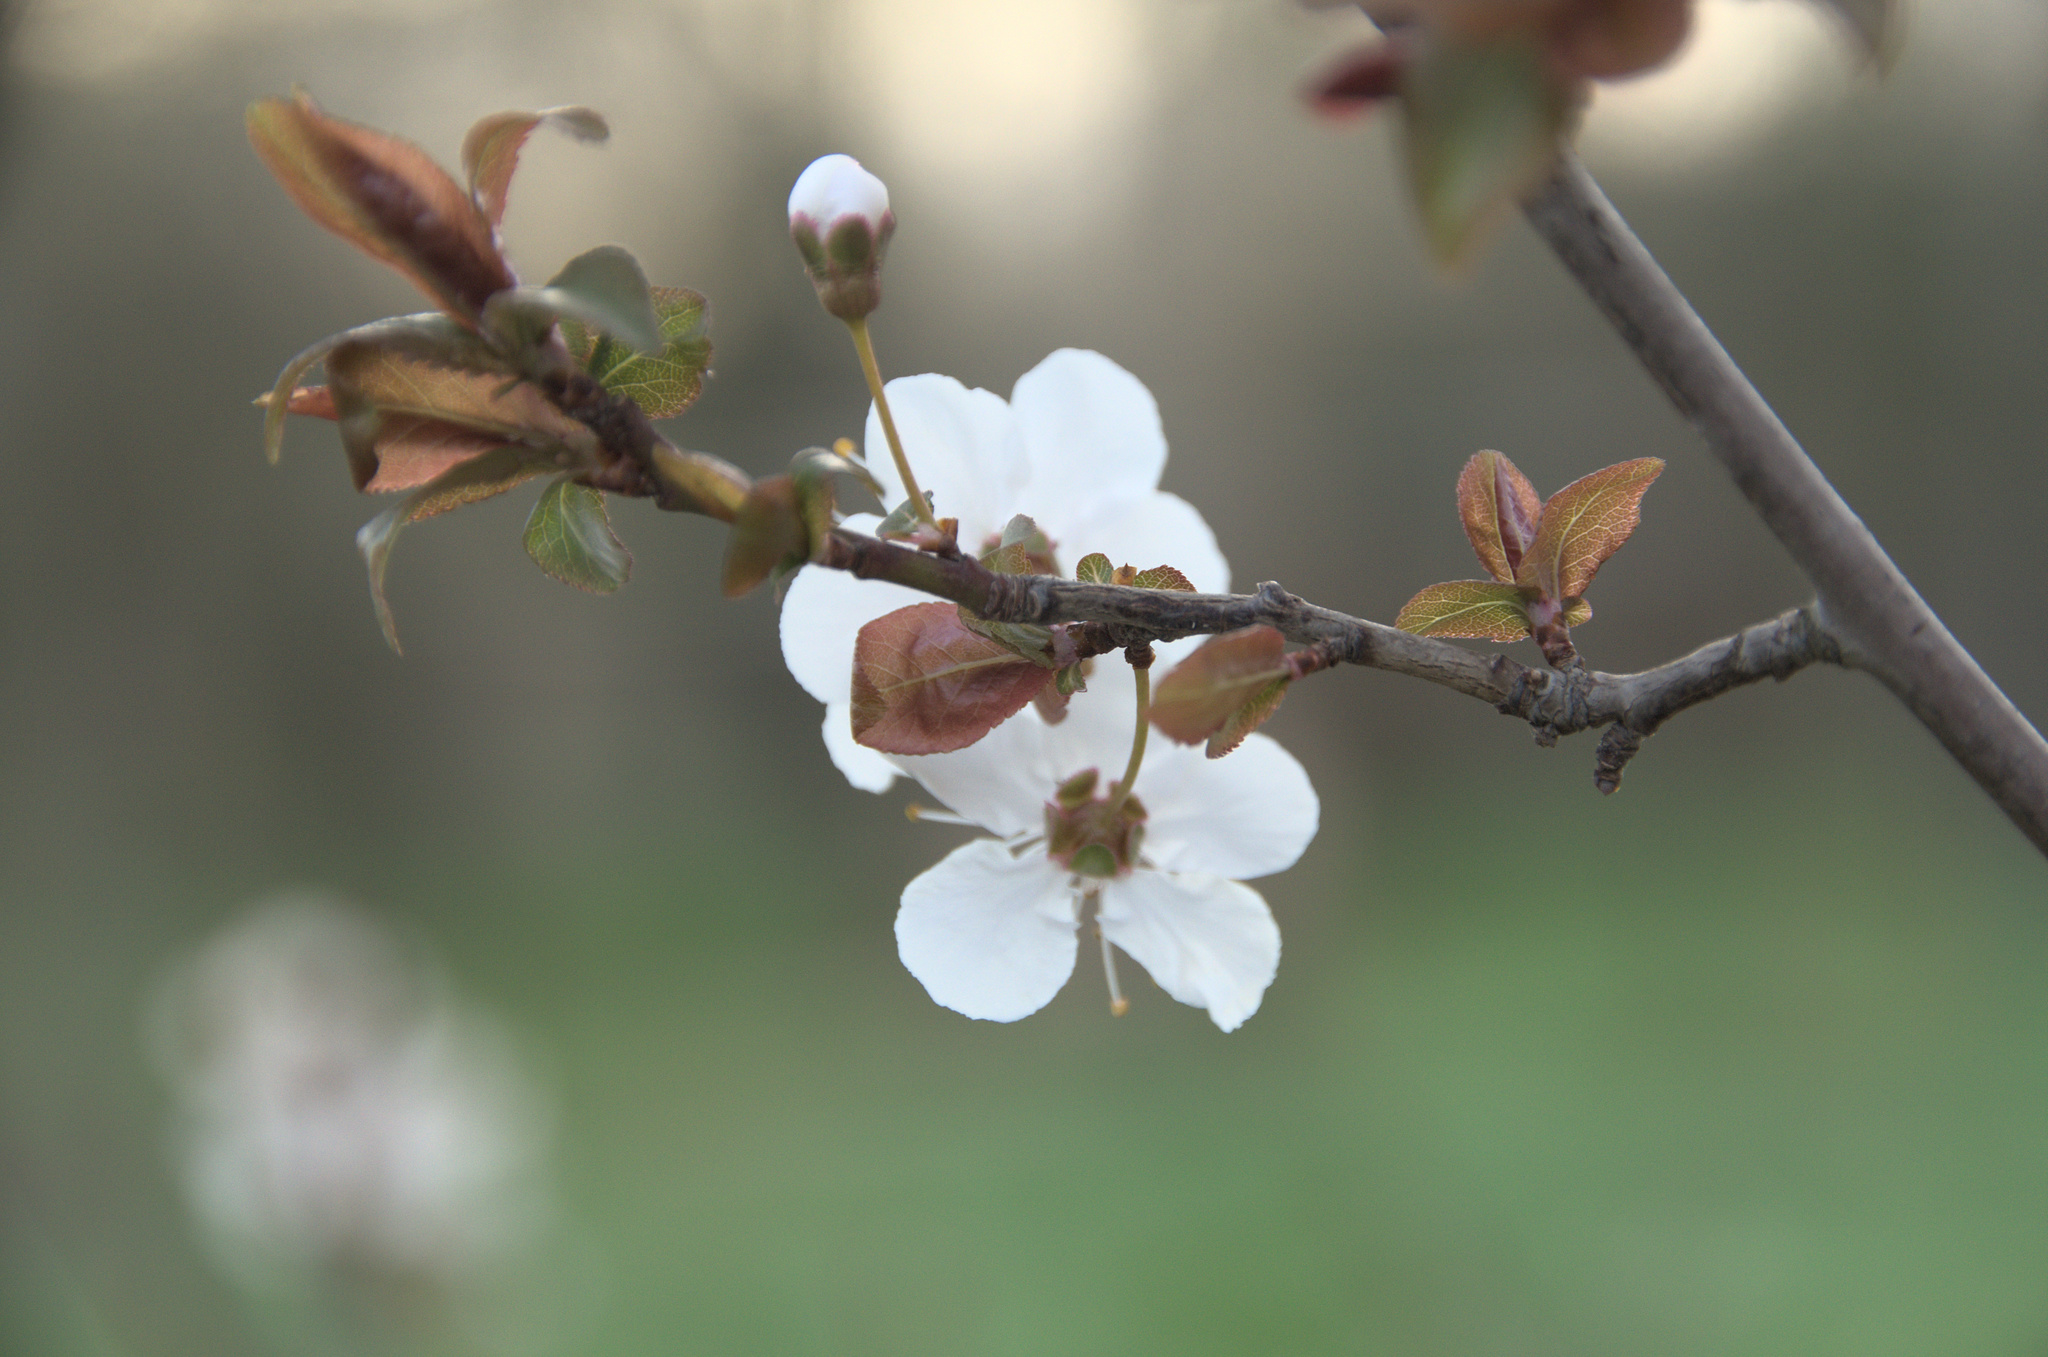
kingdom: Plantae
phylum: Tracheophyta
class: Magnoliopsida
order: Rosales
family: Rosaceae
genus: Prunus
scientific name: Prunus cerasifera
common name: Cherry plum
